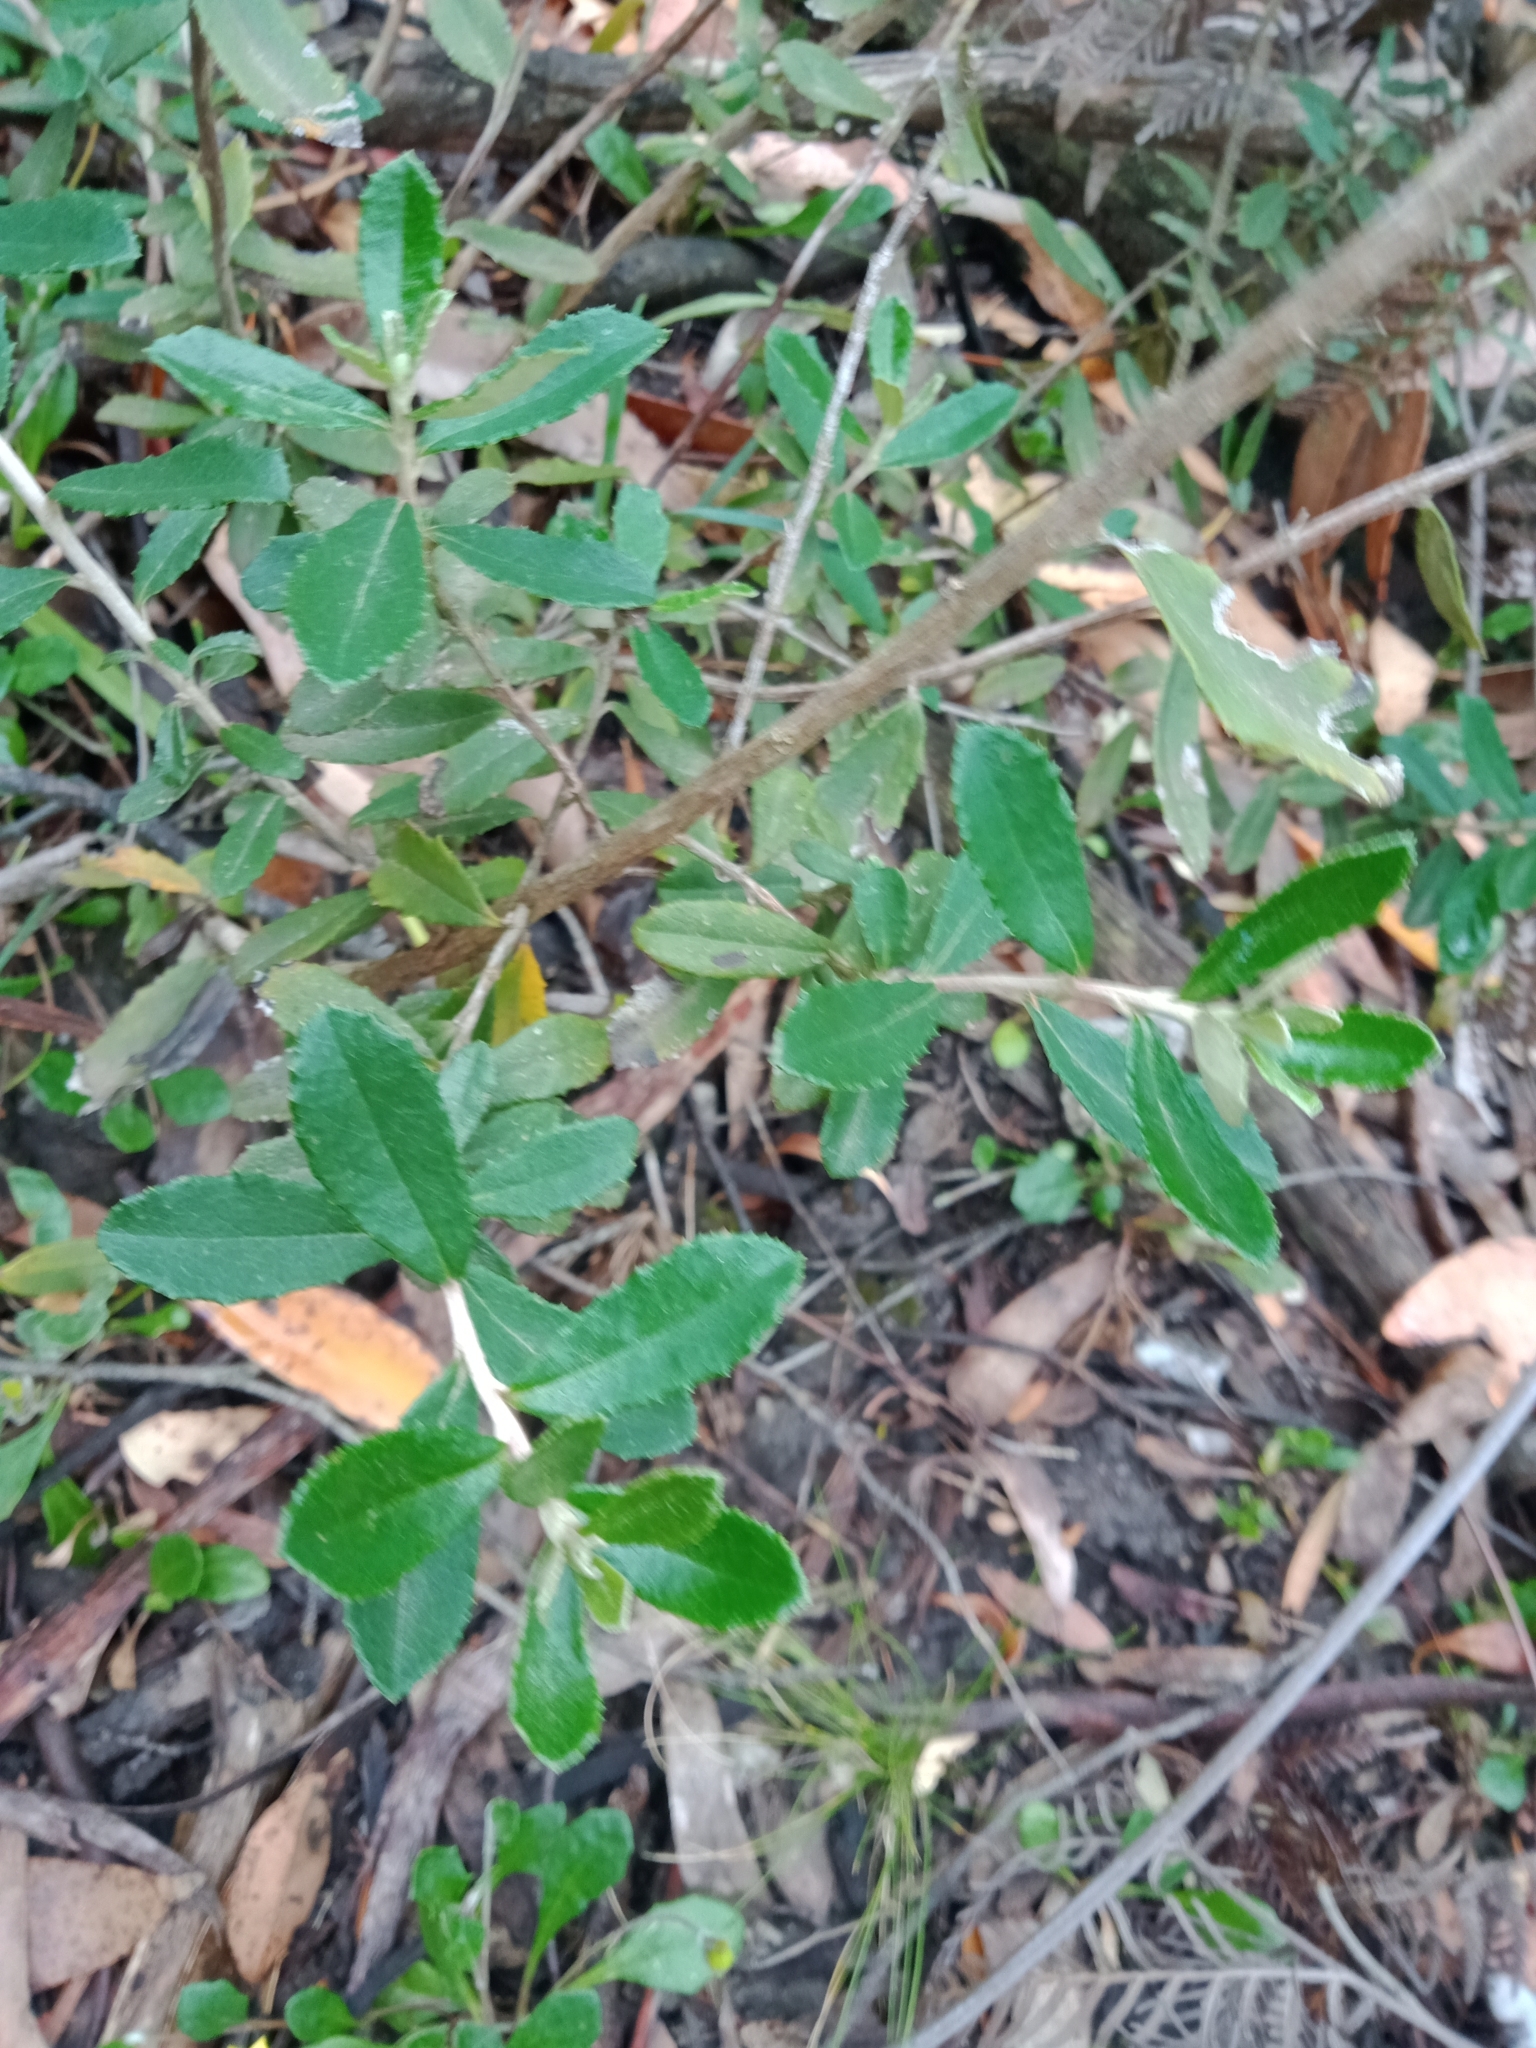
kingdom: Plantae
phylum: Tracheophyta
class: Magnoliopsida
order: Asterales
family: Asteraceae
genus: Olearia
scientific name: Olearia erubescens
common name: Moth daisybush
